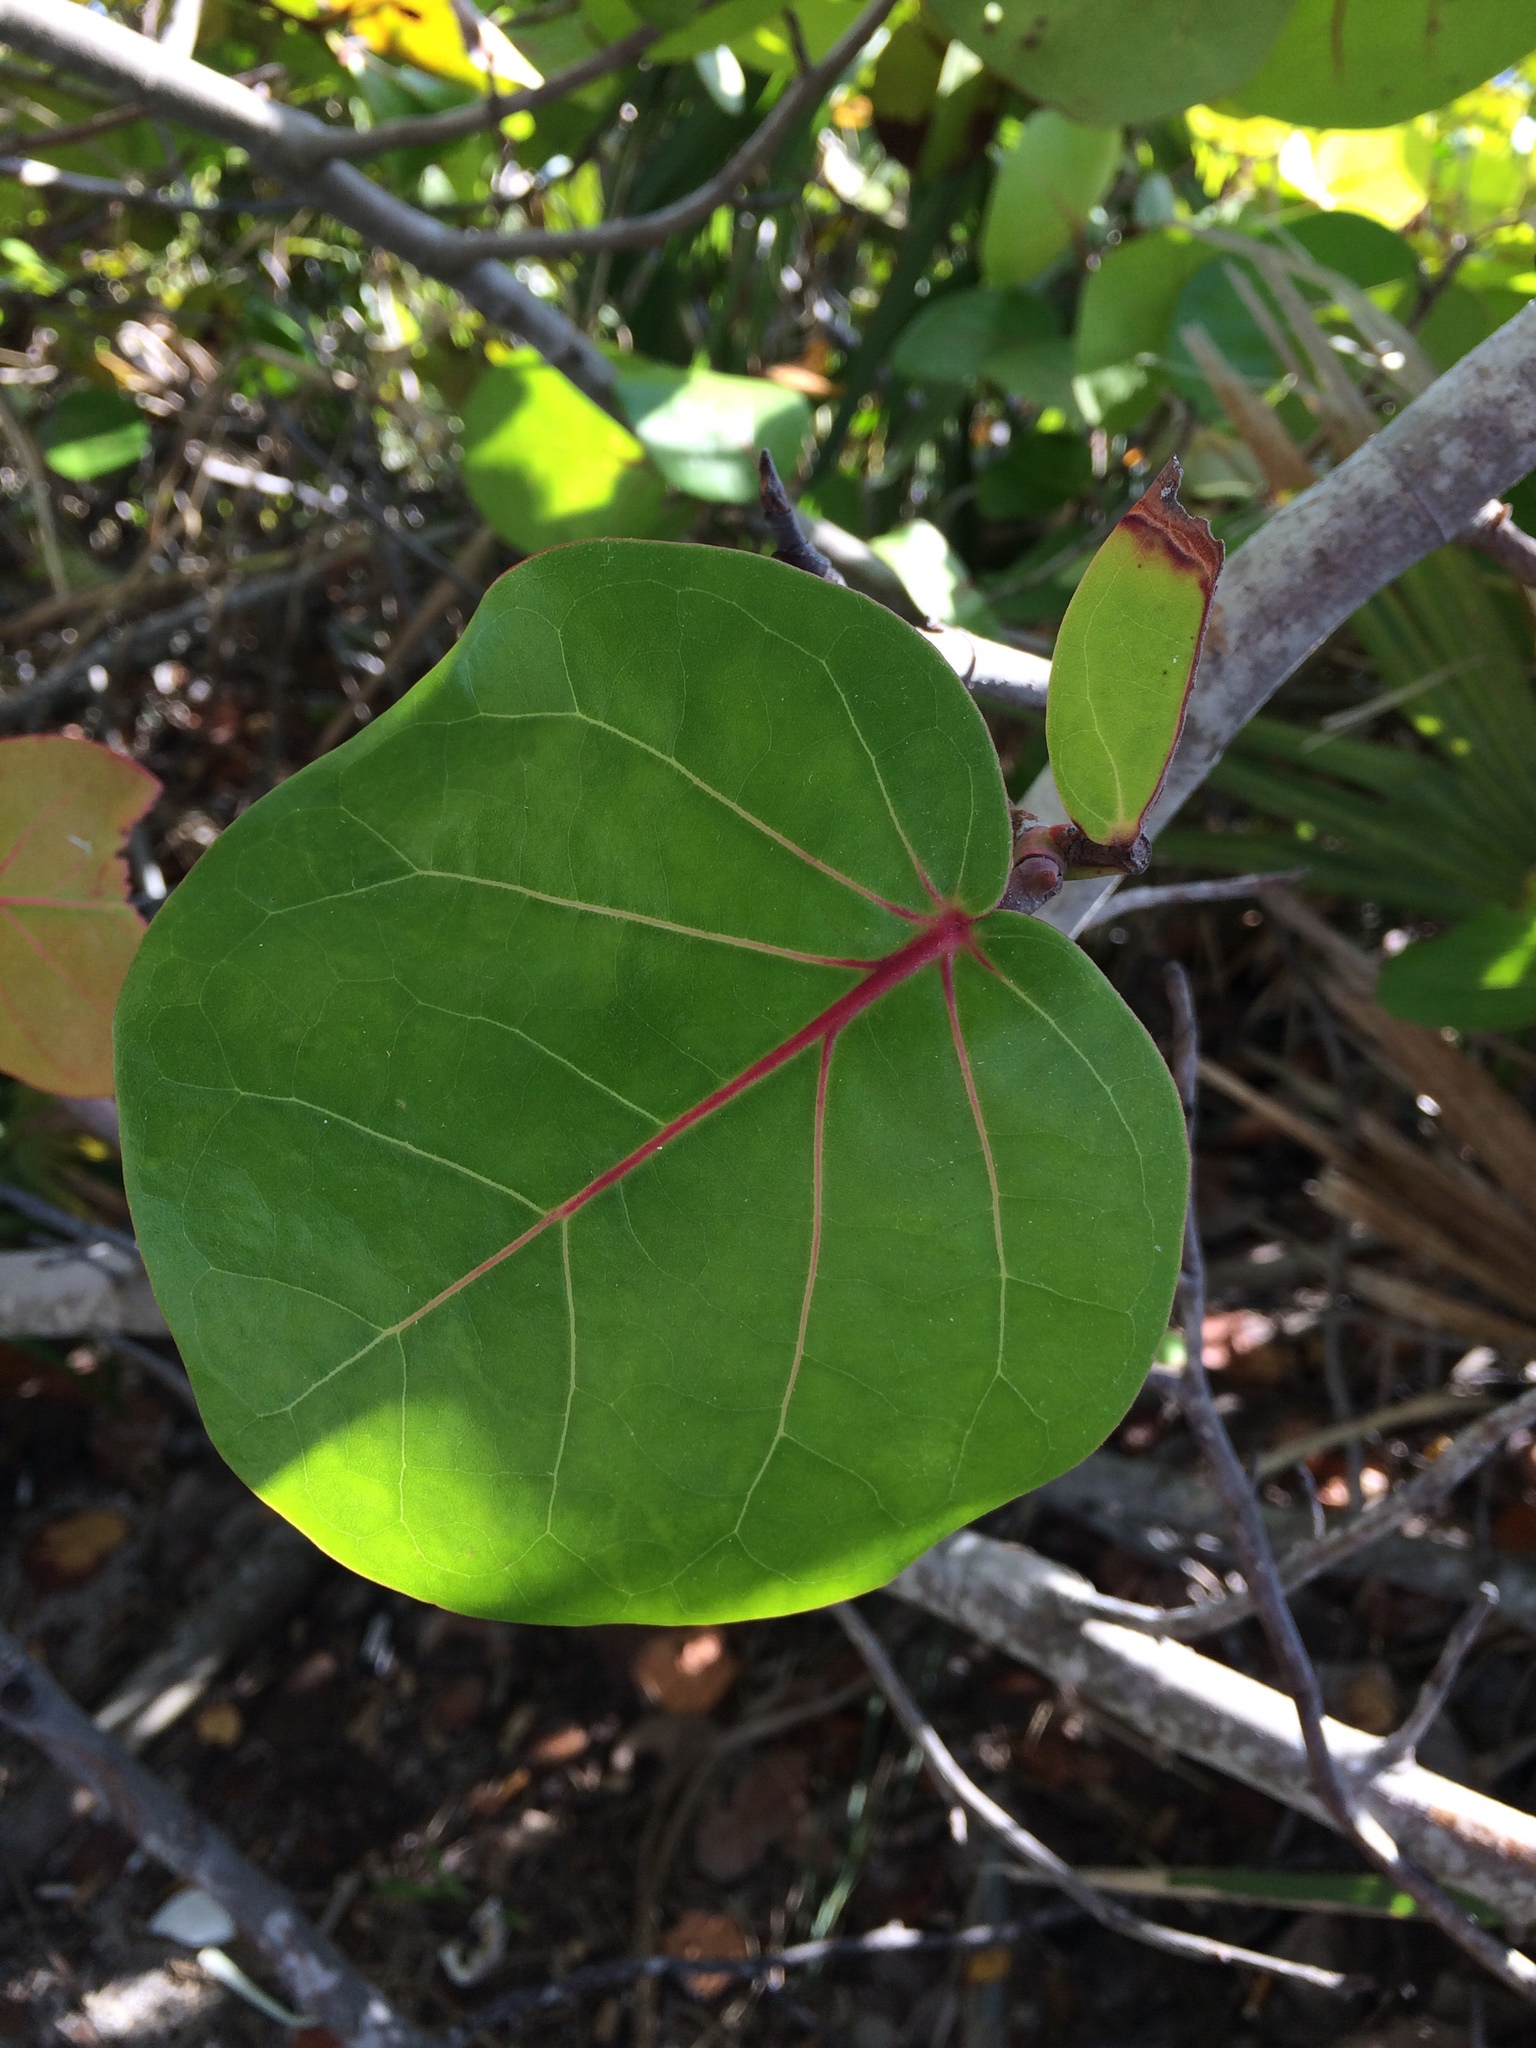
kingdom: Plantae
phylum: Tracheophyta
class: Magnoliopsida
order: Caryophyllales
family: Polygonaceae
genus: Coccoloba
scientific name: Coccoloba uvifera
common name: Seagrape
